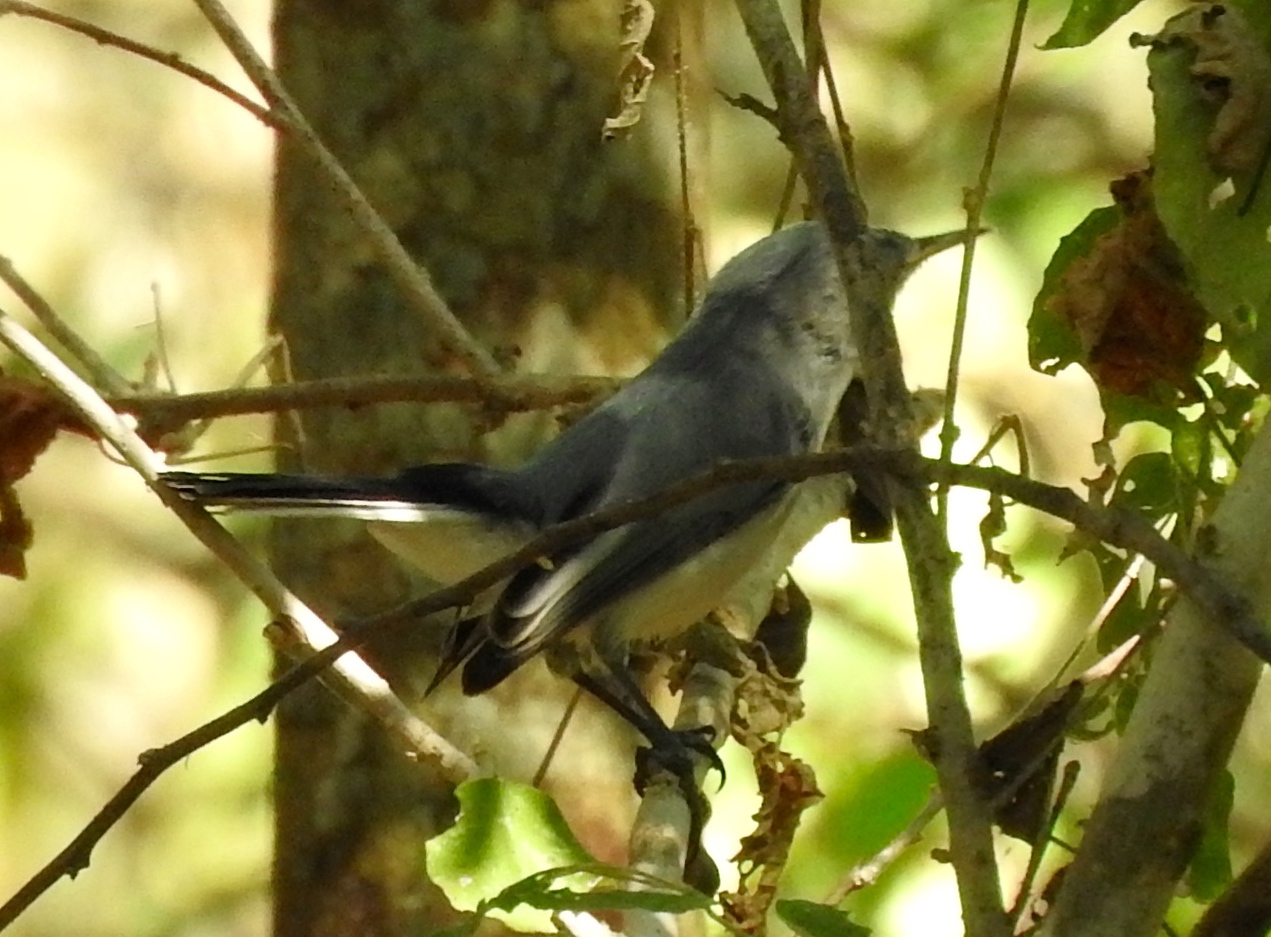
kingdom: Animalia
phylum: Chordata
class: Aves
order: Passeriformes
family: Polioptilidae
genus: Polioptila
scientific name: Polioptila caerulea
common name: Blue-gray gnatcatcher
